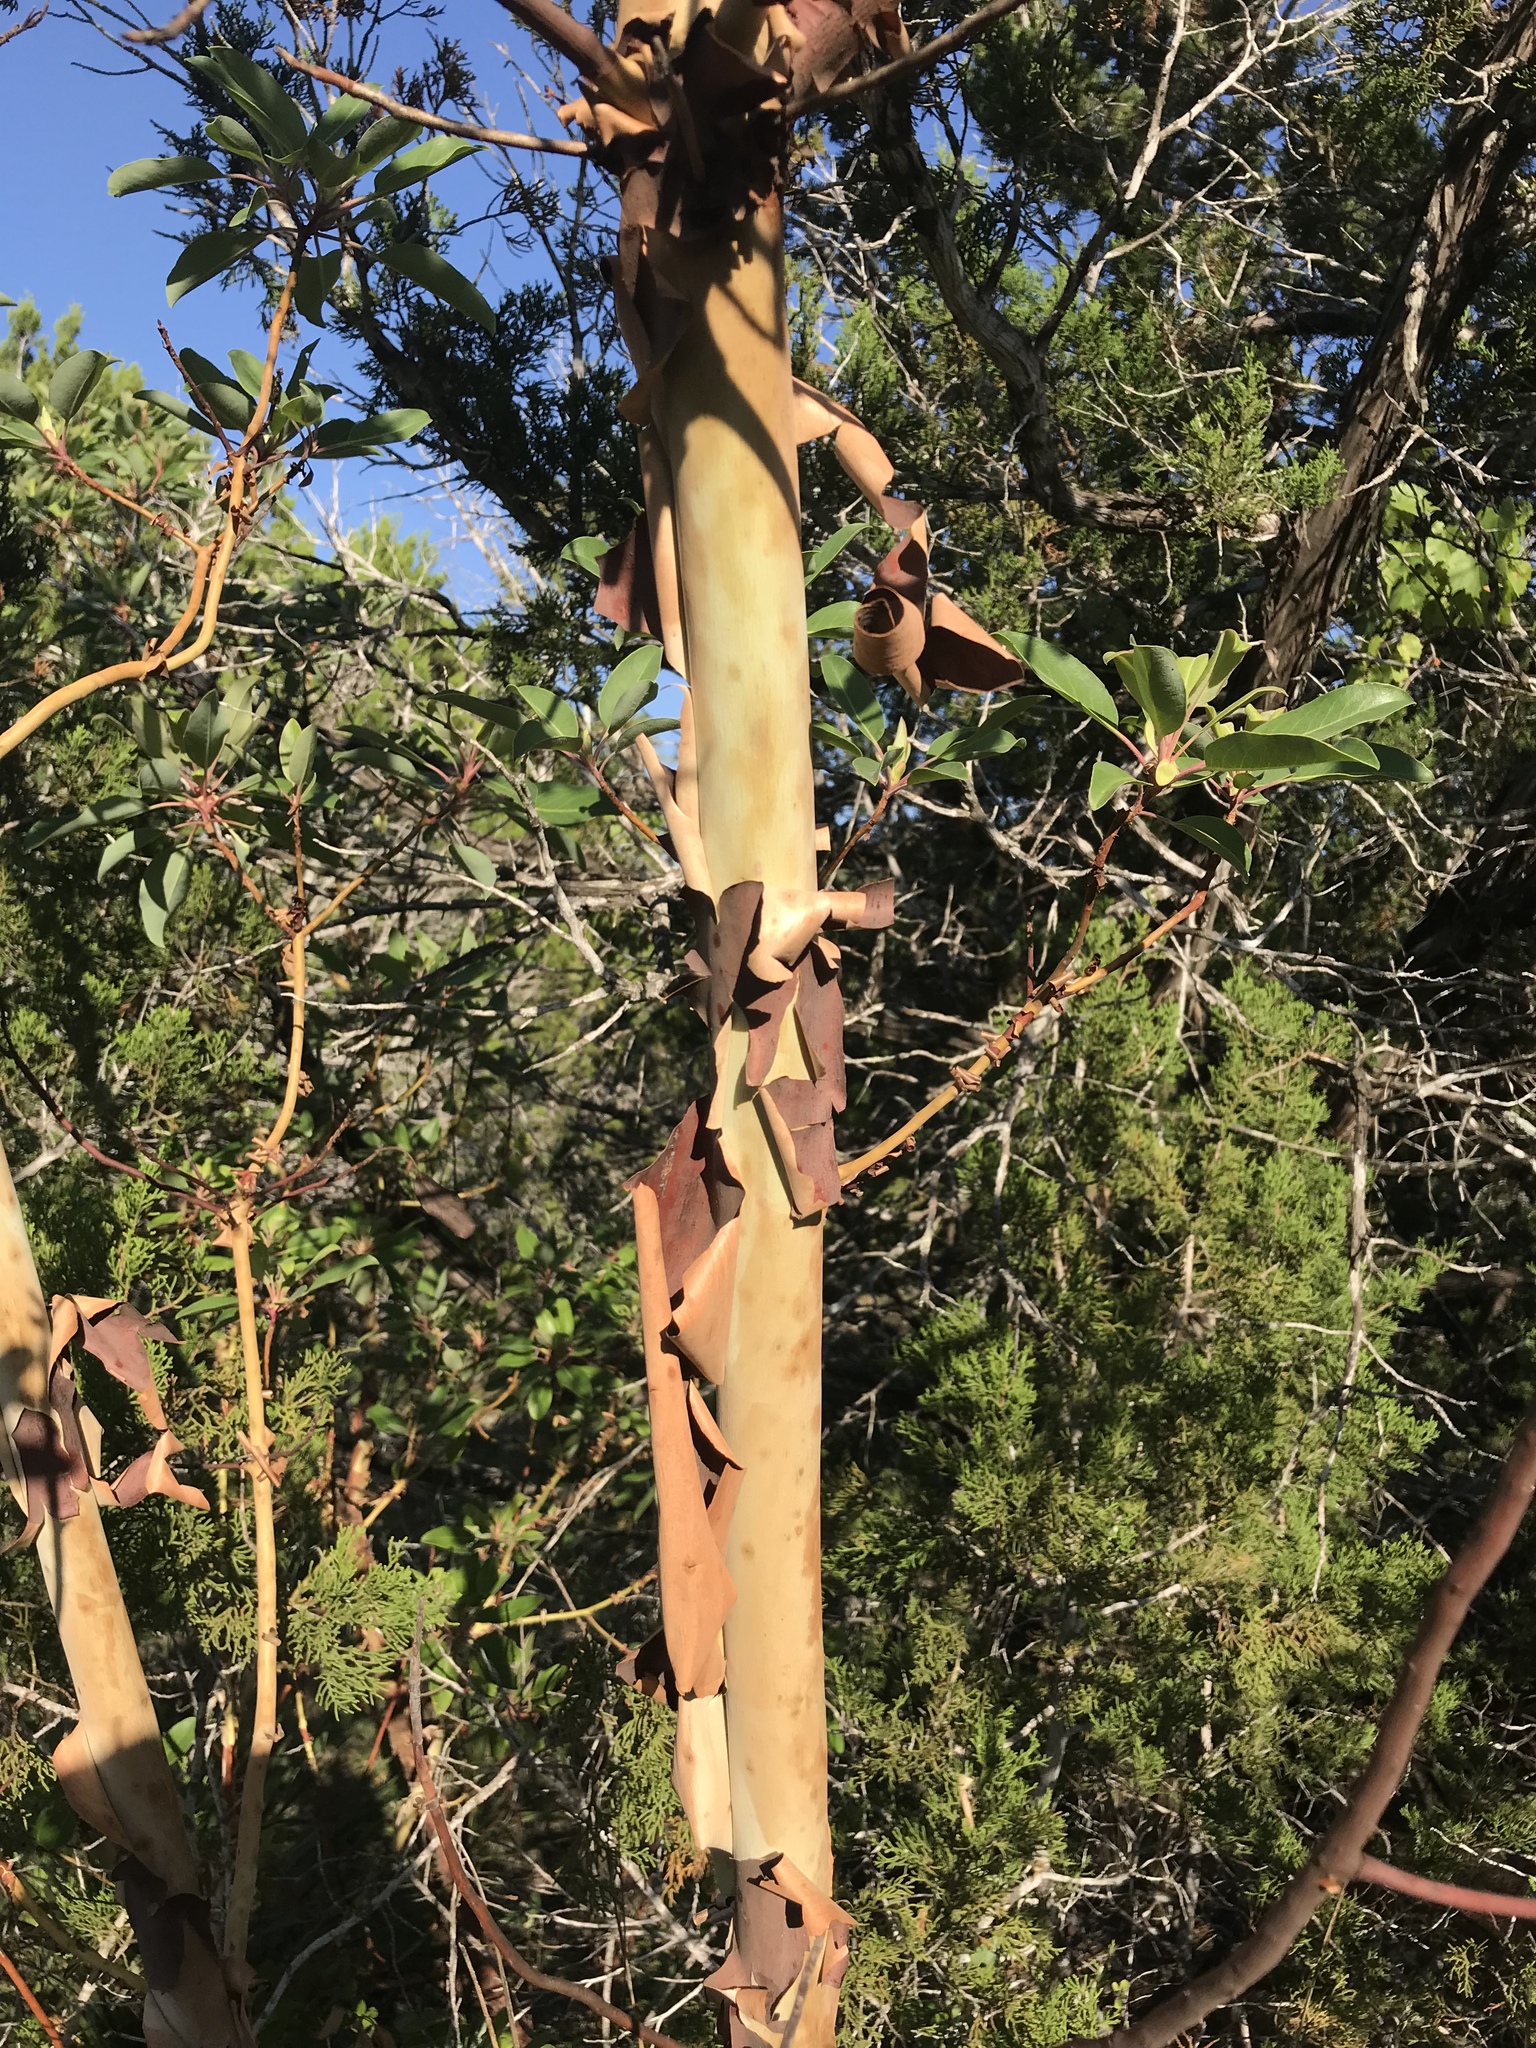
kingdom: Plantae
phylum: Tracheophyta
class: Magnoliopsida
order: Ericales
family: Ericaceae
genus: Arbutus
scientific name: Arbutus xalapensis
